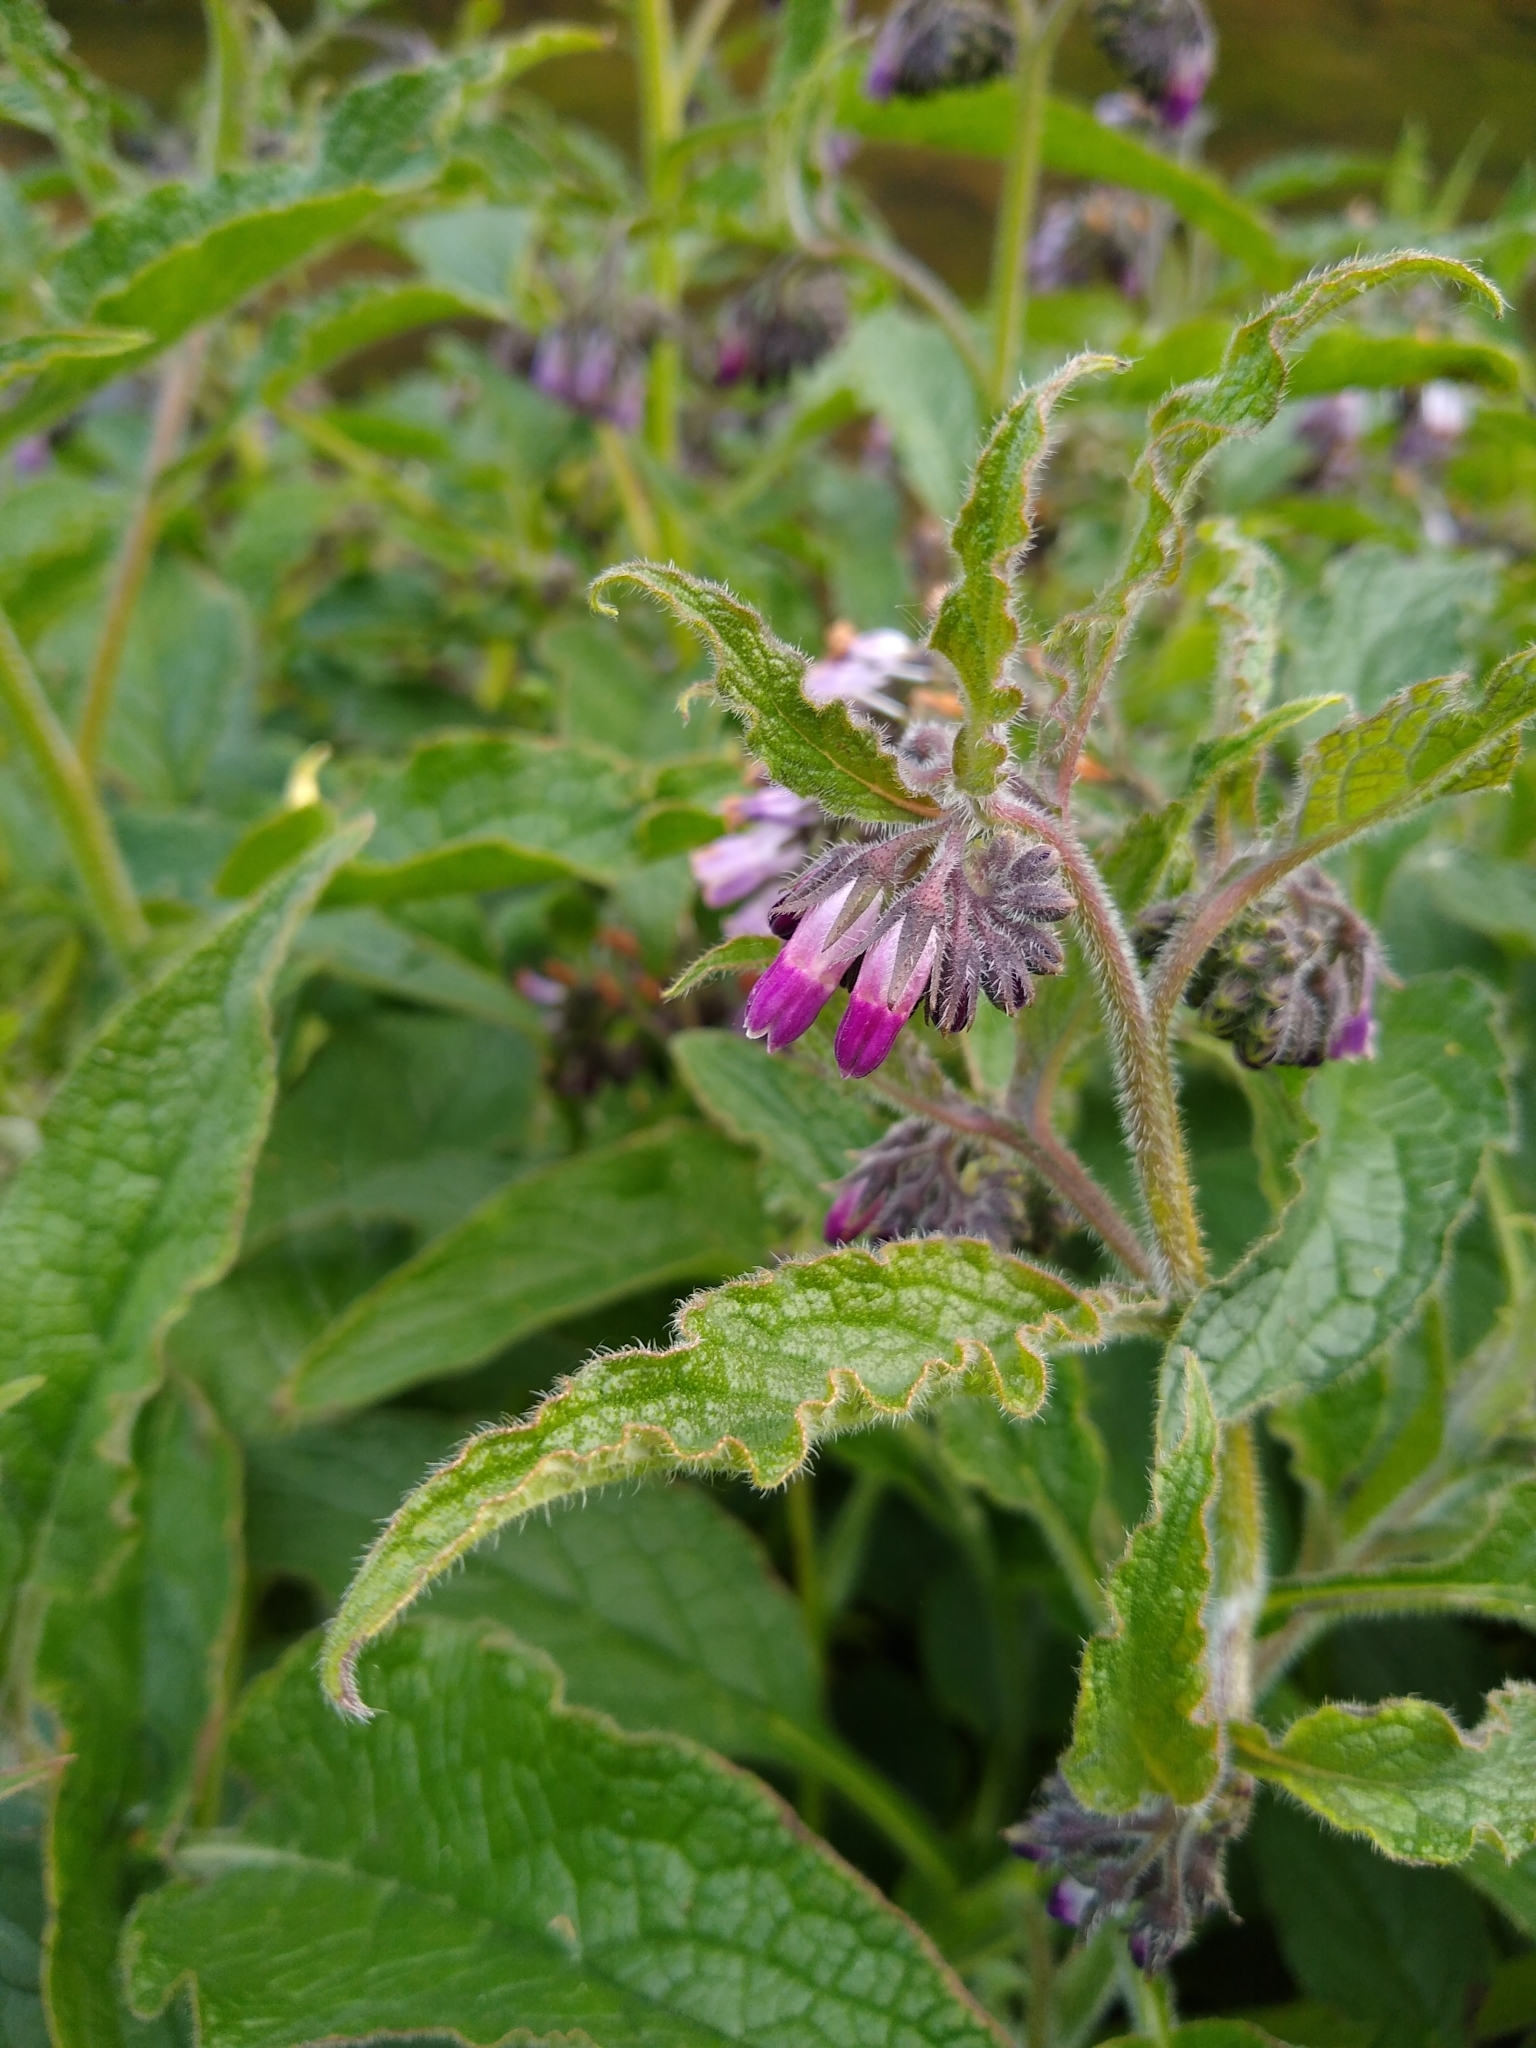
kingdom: Plantae
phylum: Tracheophyta
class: Magnoliopsida
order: Boraginales
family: Boraginaceae
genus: Symphytum
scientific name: Symphytum officinale
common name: Common comfrey
